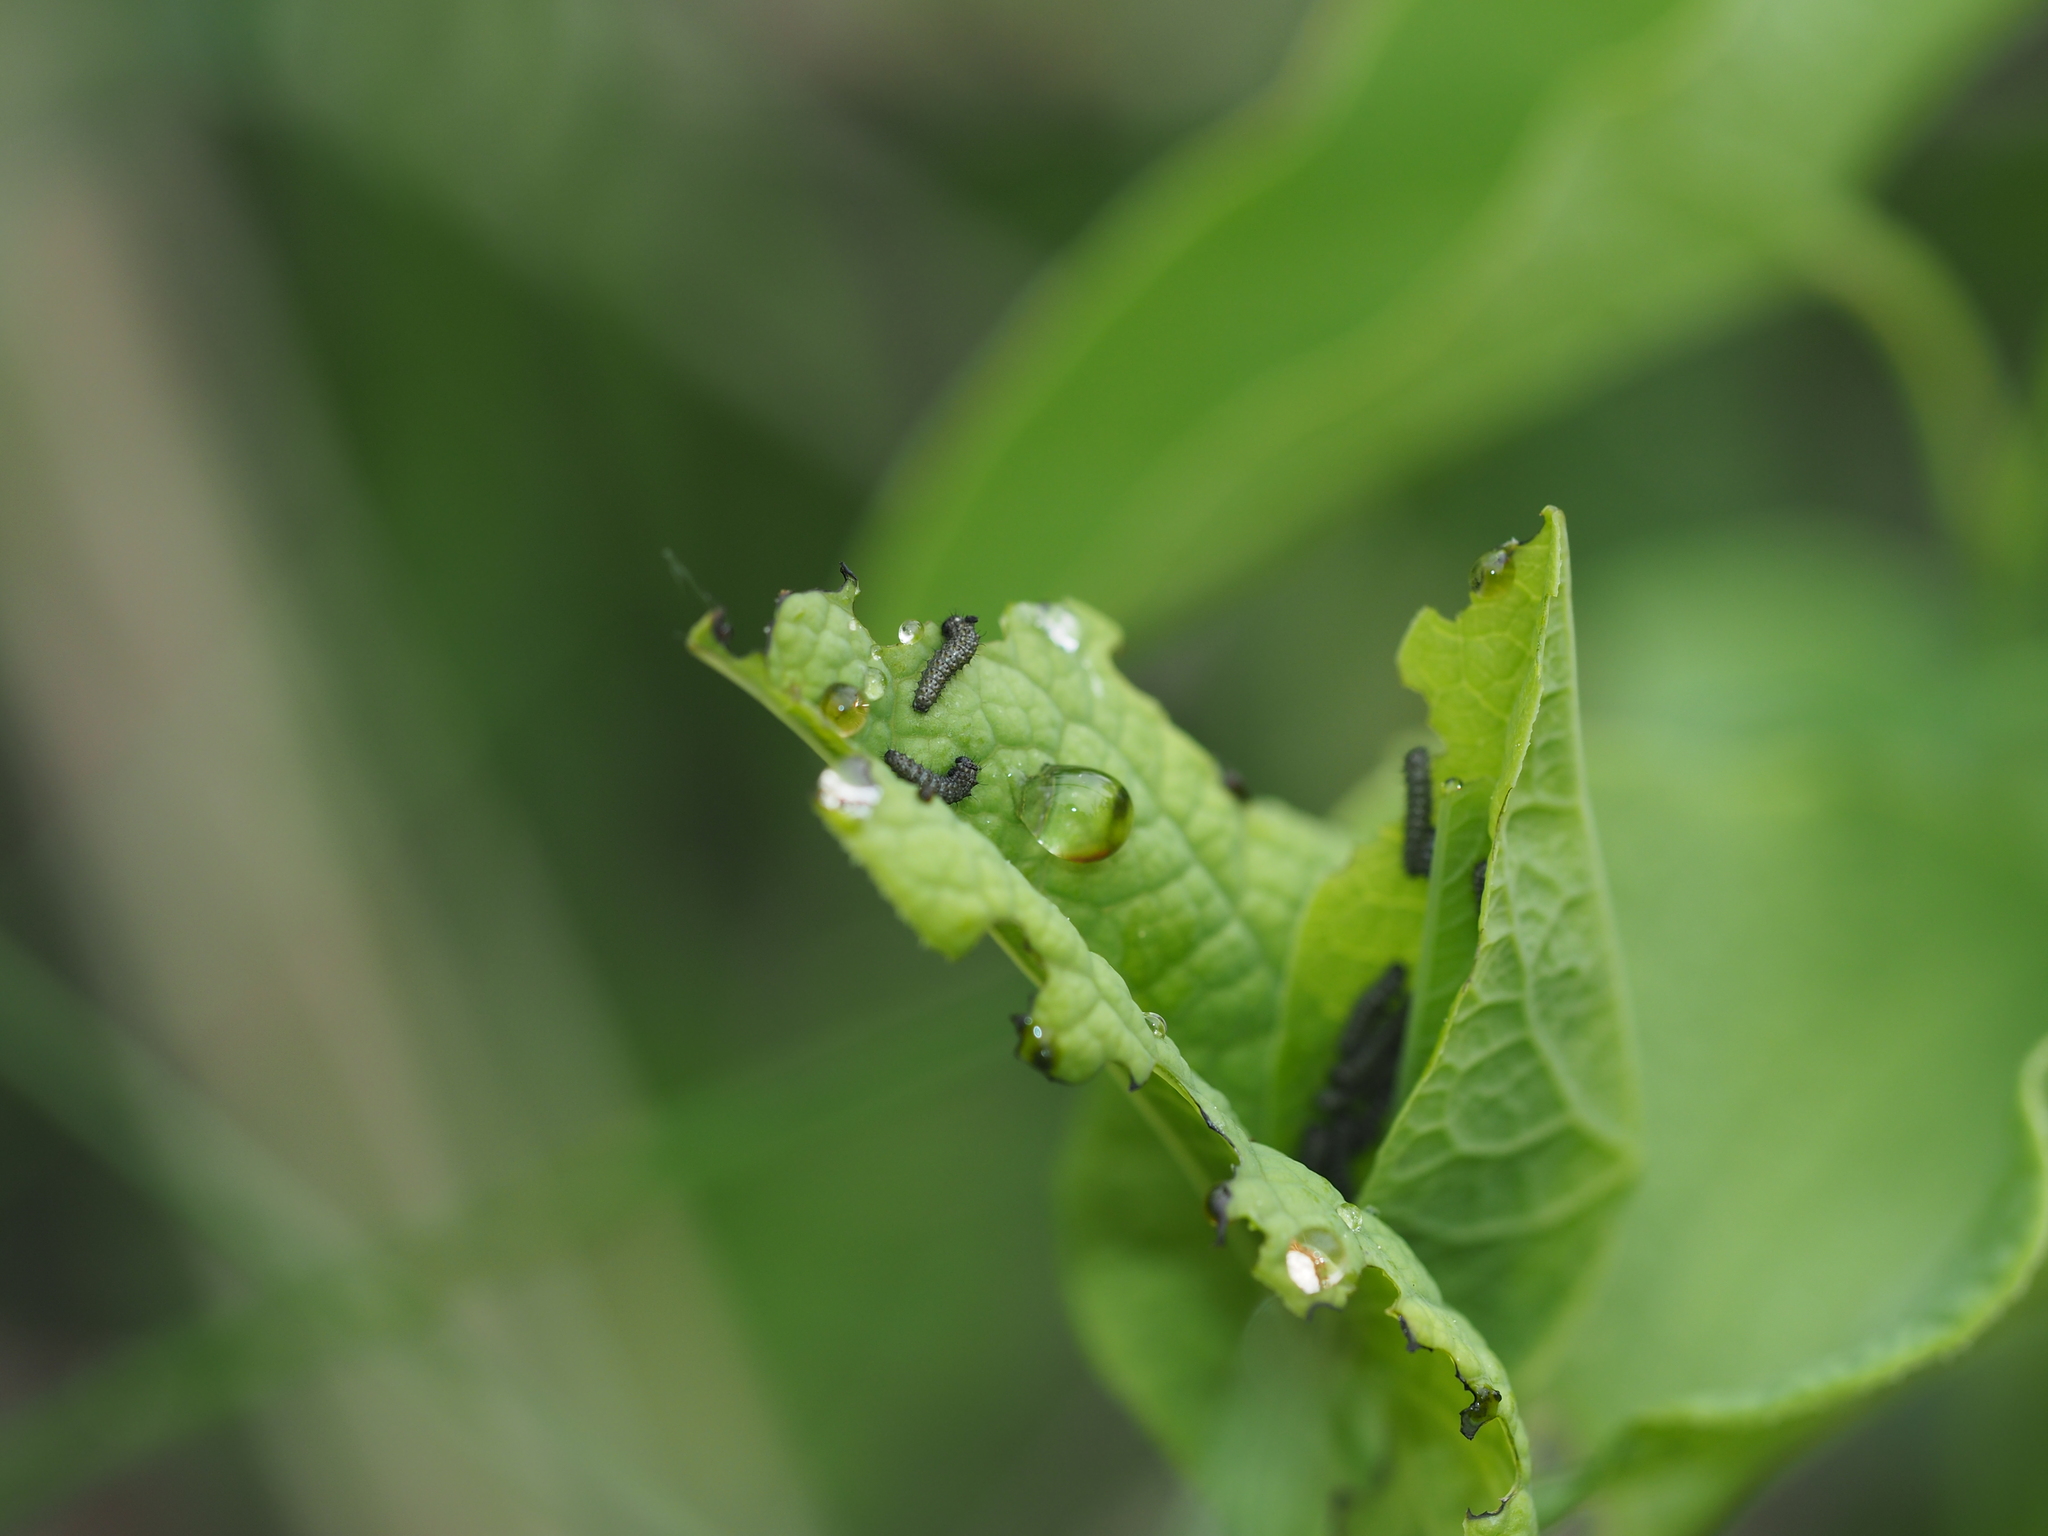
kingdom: Animalia
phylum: Arthropoda
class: Insecta
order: Lepidoptera
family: Papilionidae
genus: Zerynthia
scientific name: Zerynthia polyxena
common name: Southern festoon
